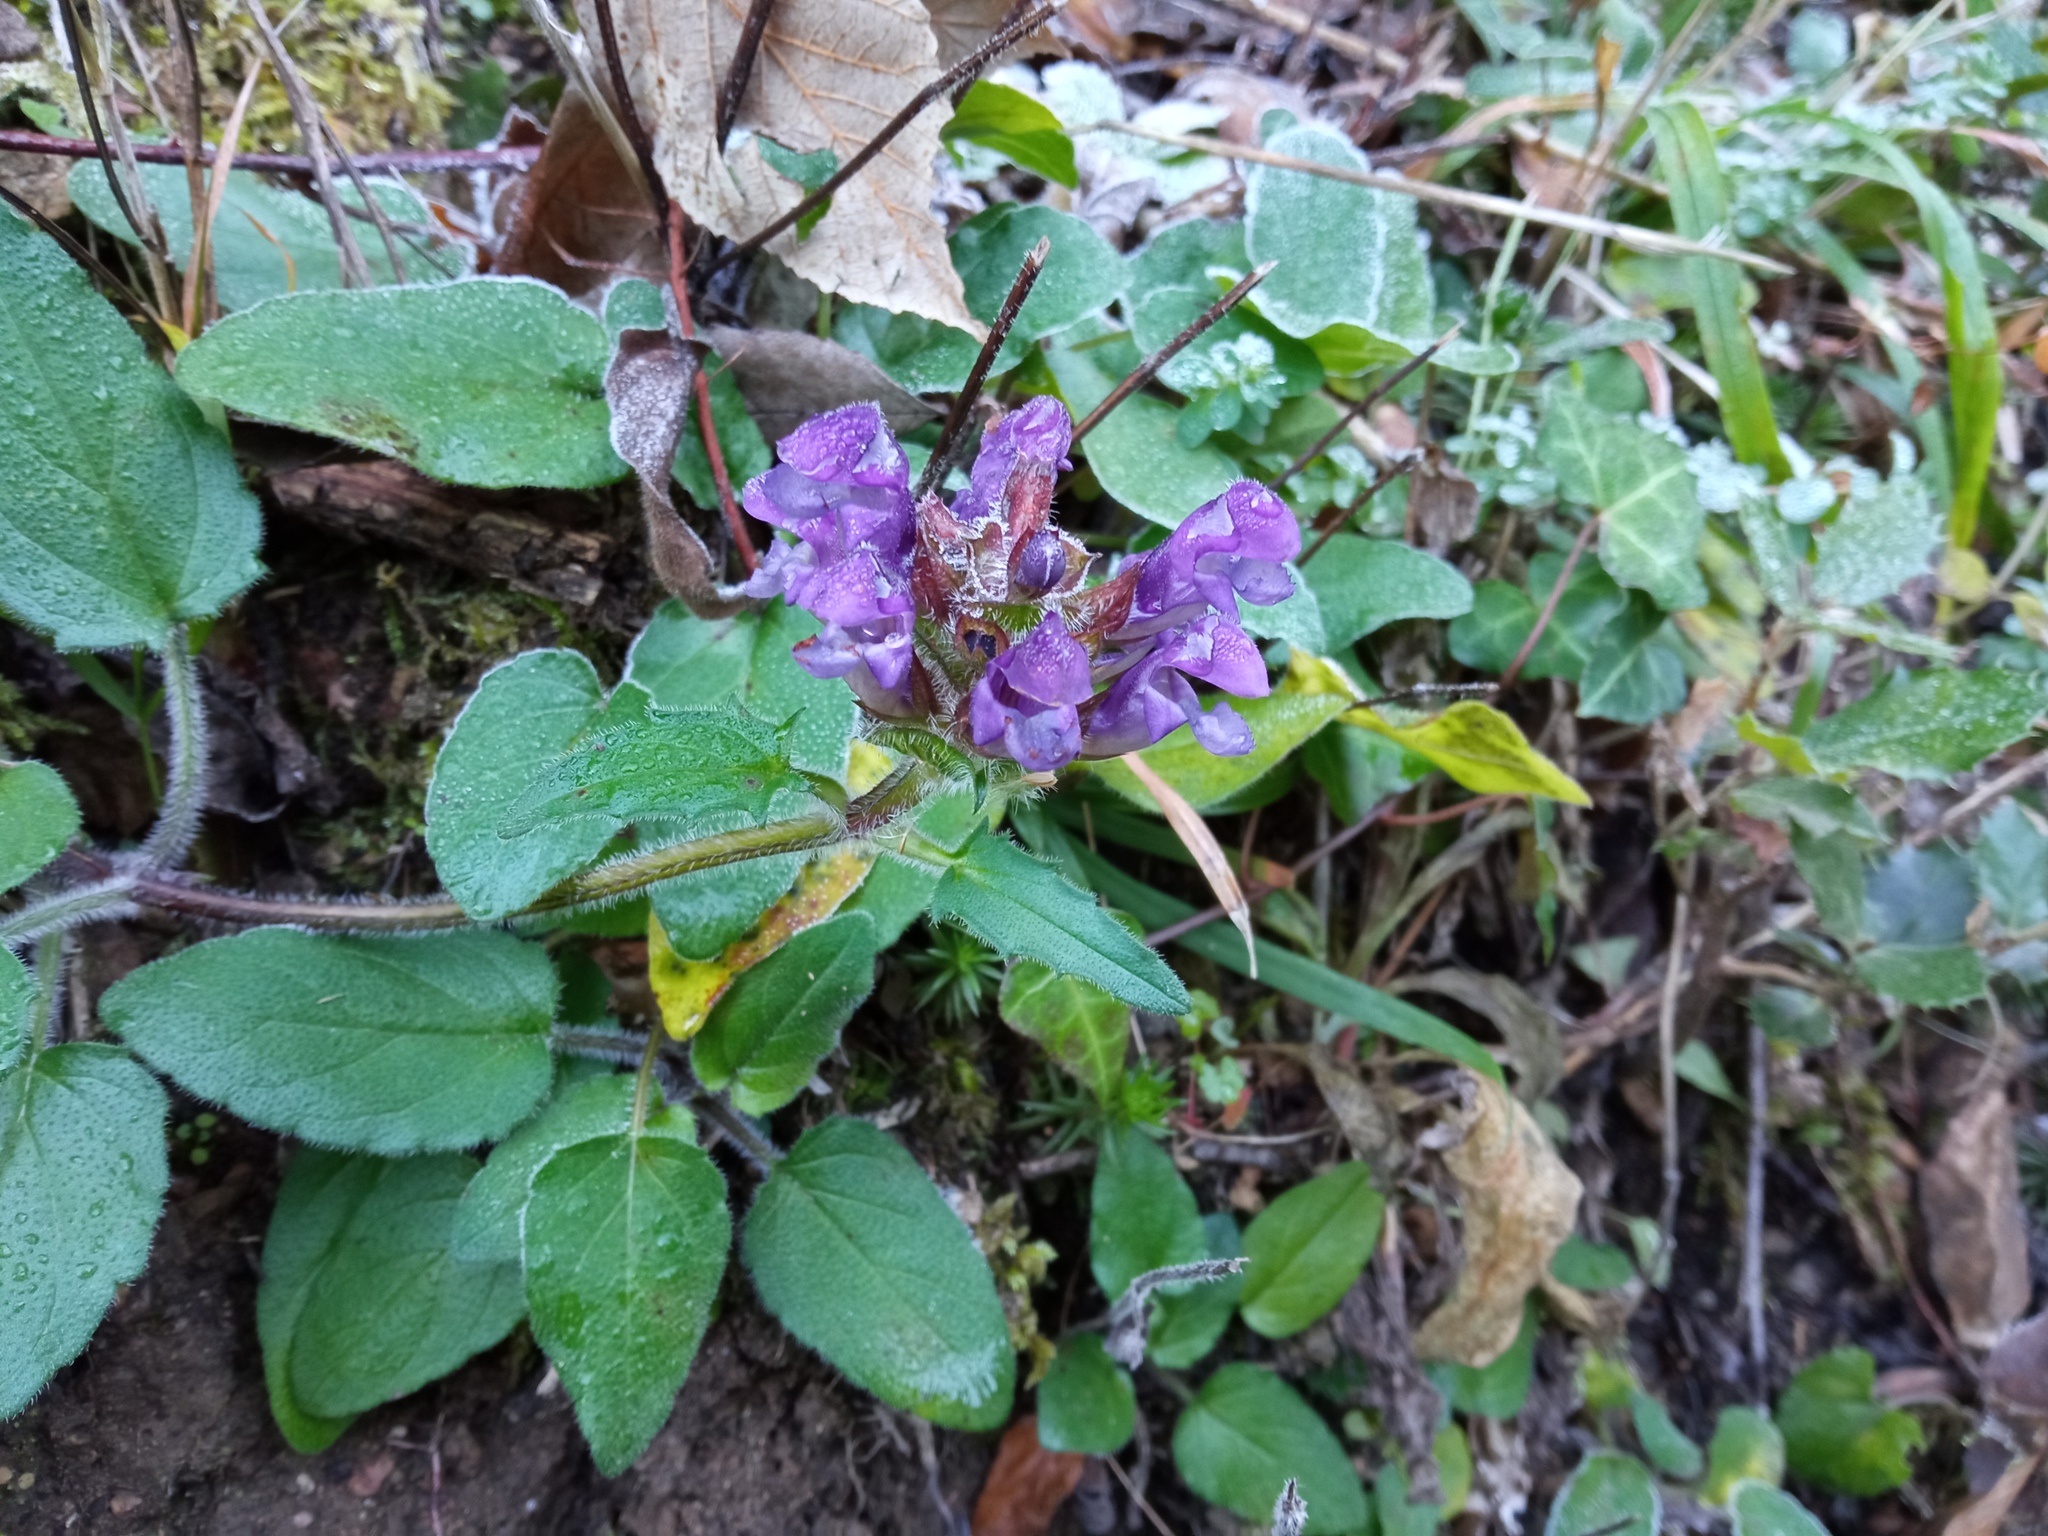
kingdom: Plantae
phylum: Tracheophyta
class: Magnoliopsida
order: Lamiales
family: Lamiaceae
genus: Prunella
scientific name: Prunella grandiflora
